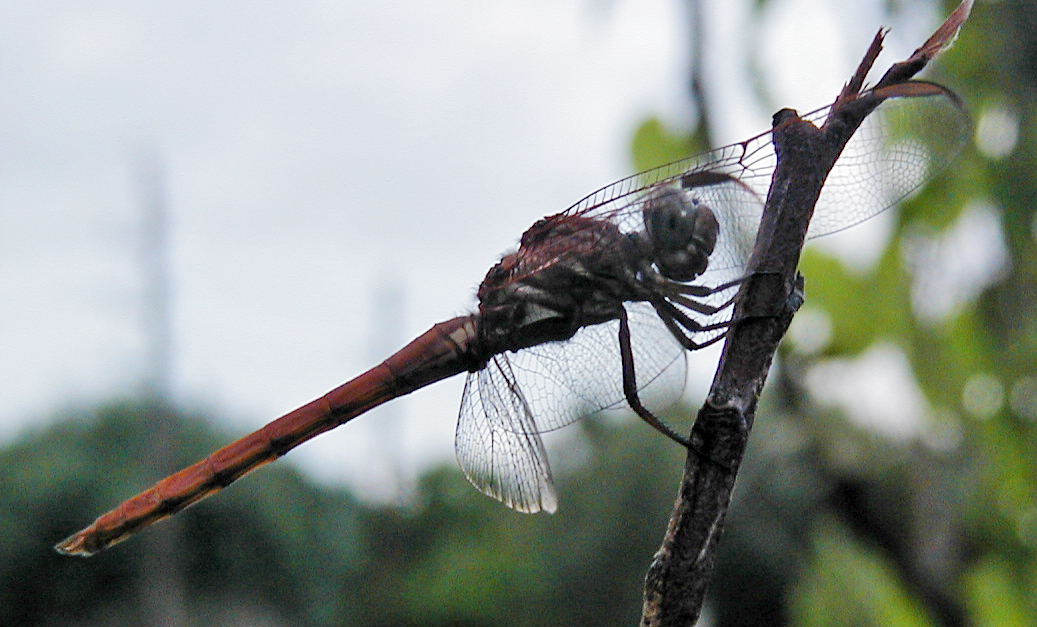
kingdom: Animalia
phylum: Arthropoda
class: Insecta
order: Odonata
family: Libellulidae
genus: Orthemis
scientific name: Orthemis ferruginea
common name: Roseate skimmer
